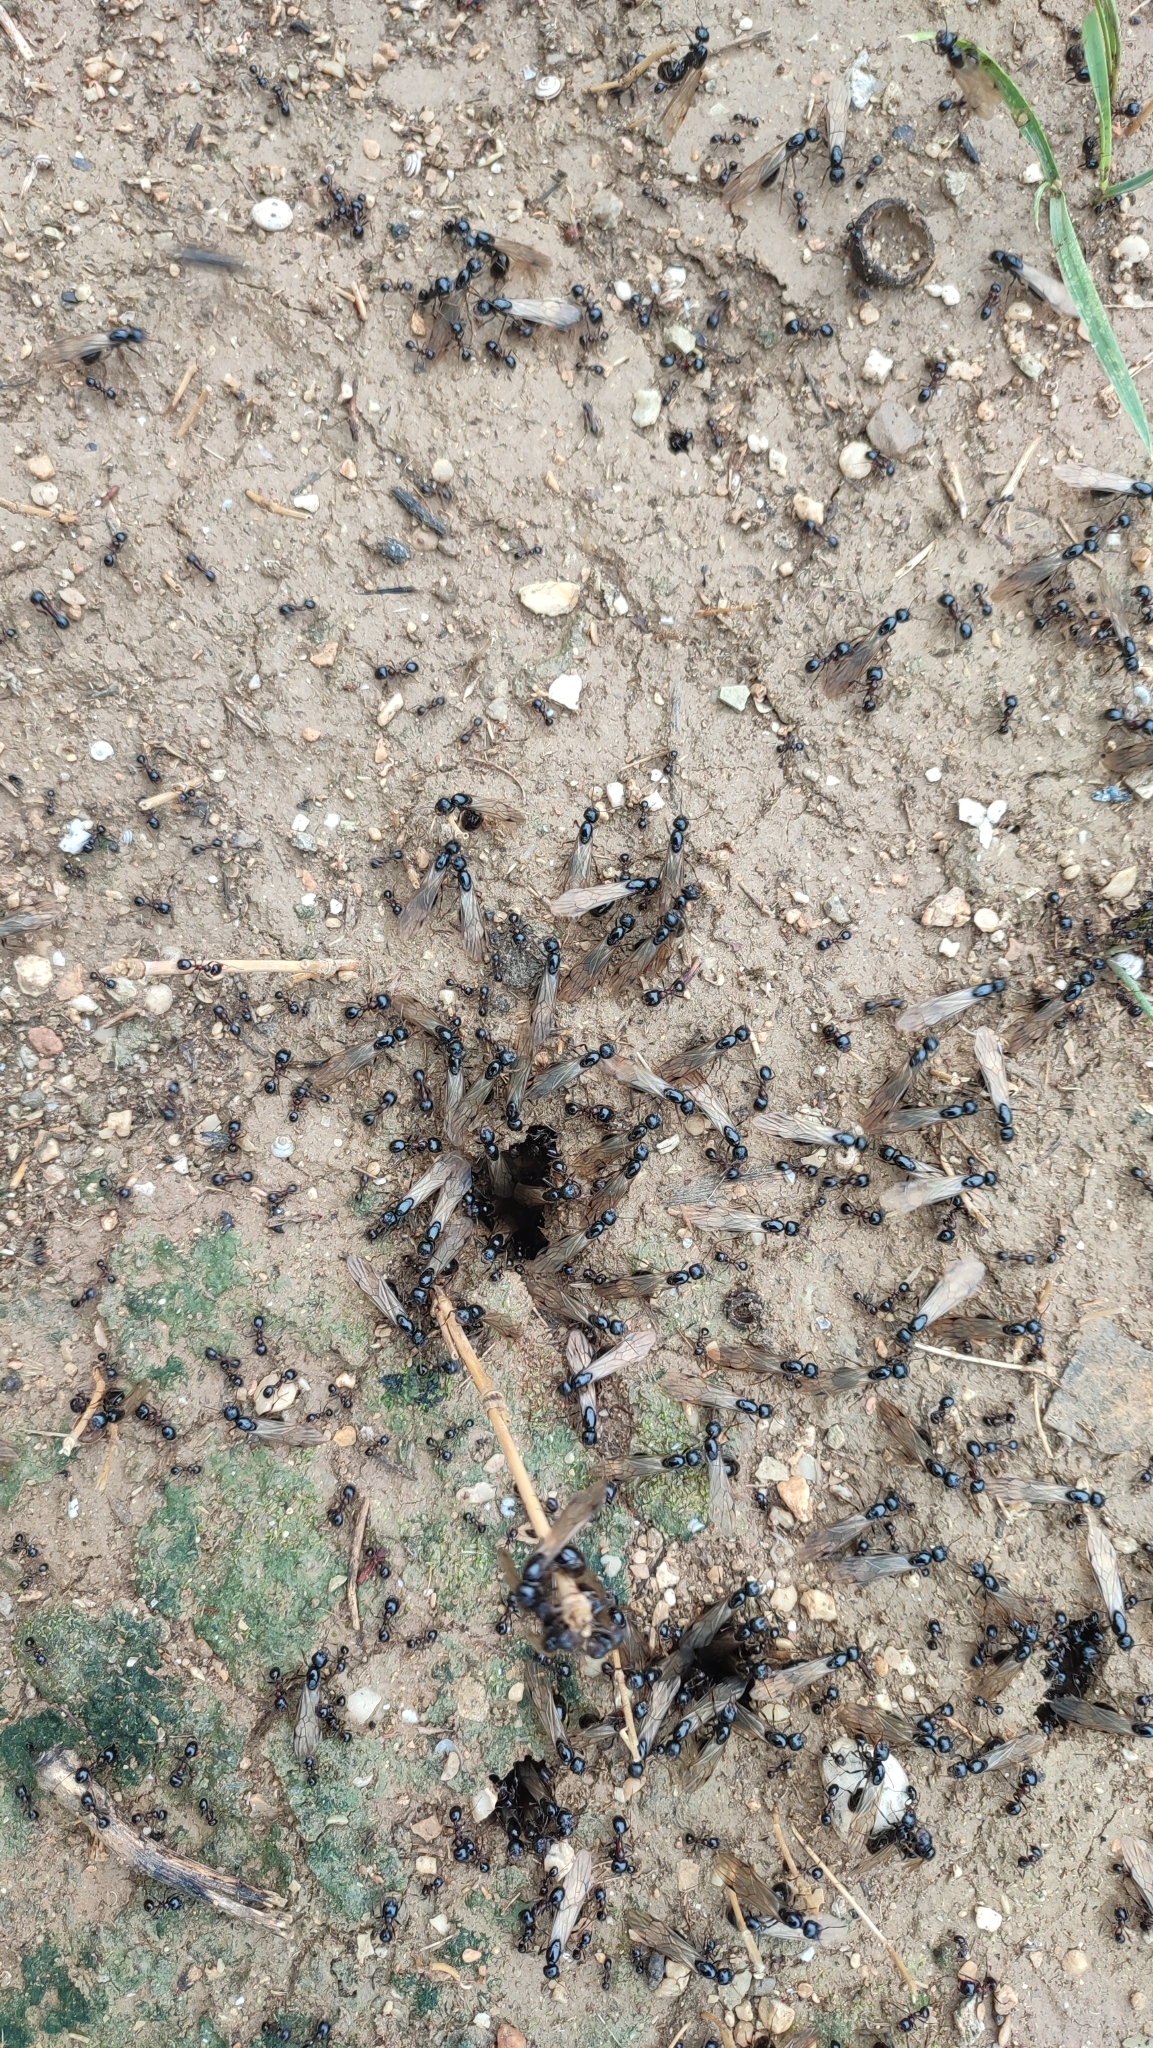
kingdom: Animalia
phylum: Arthropoda
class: Insecta
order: Hymenoptera
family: Formicidae
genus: Messor
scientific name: Messor wasmanni
